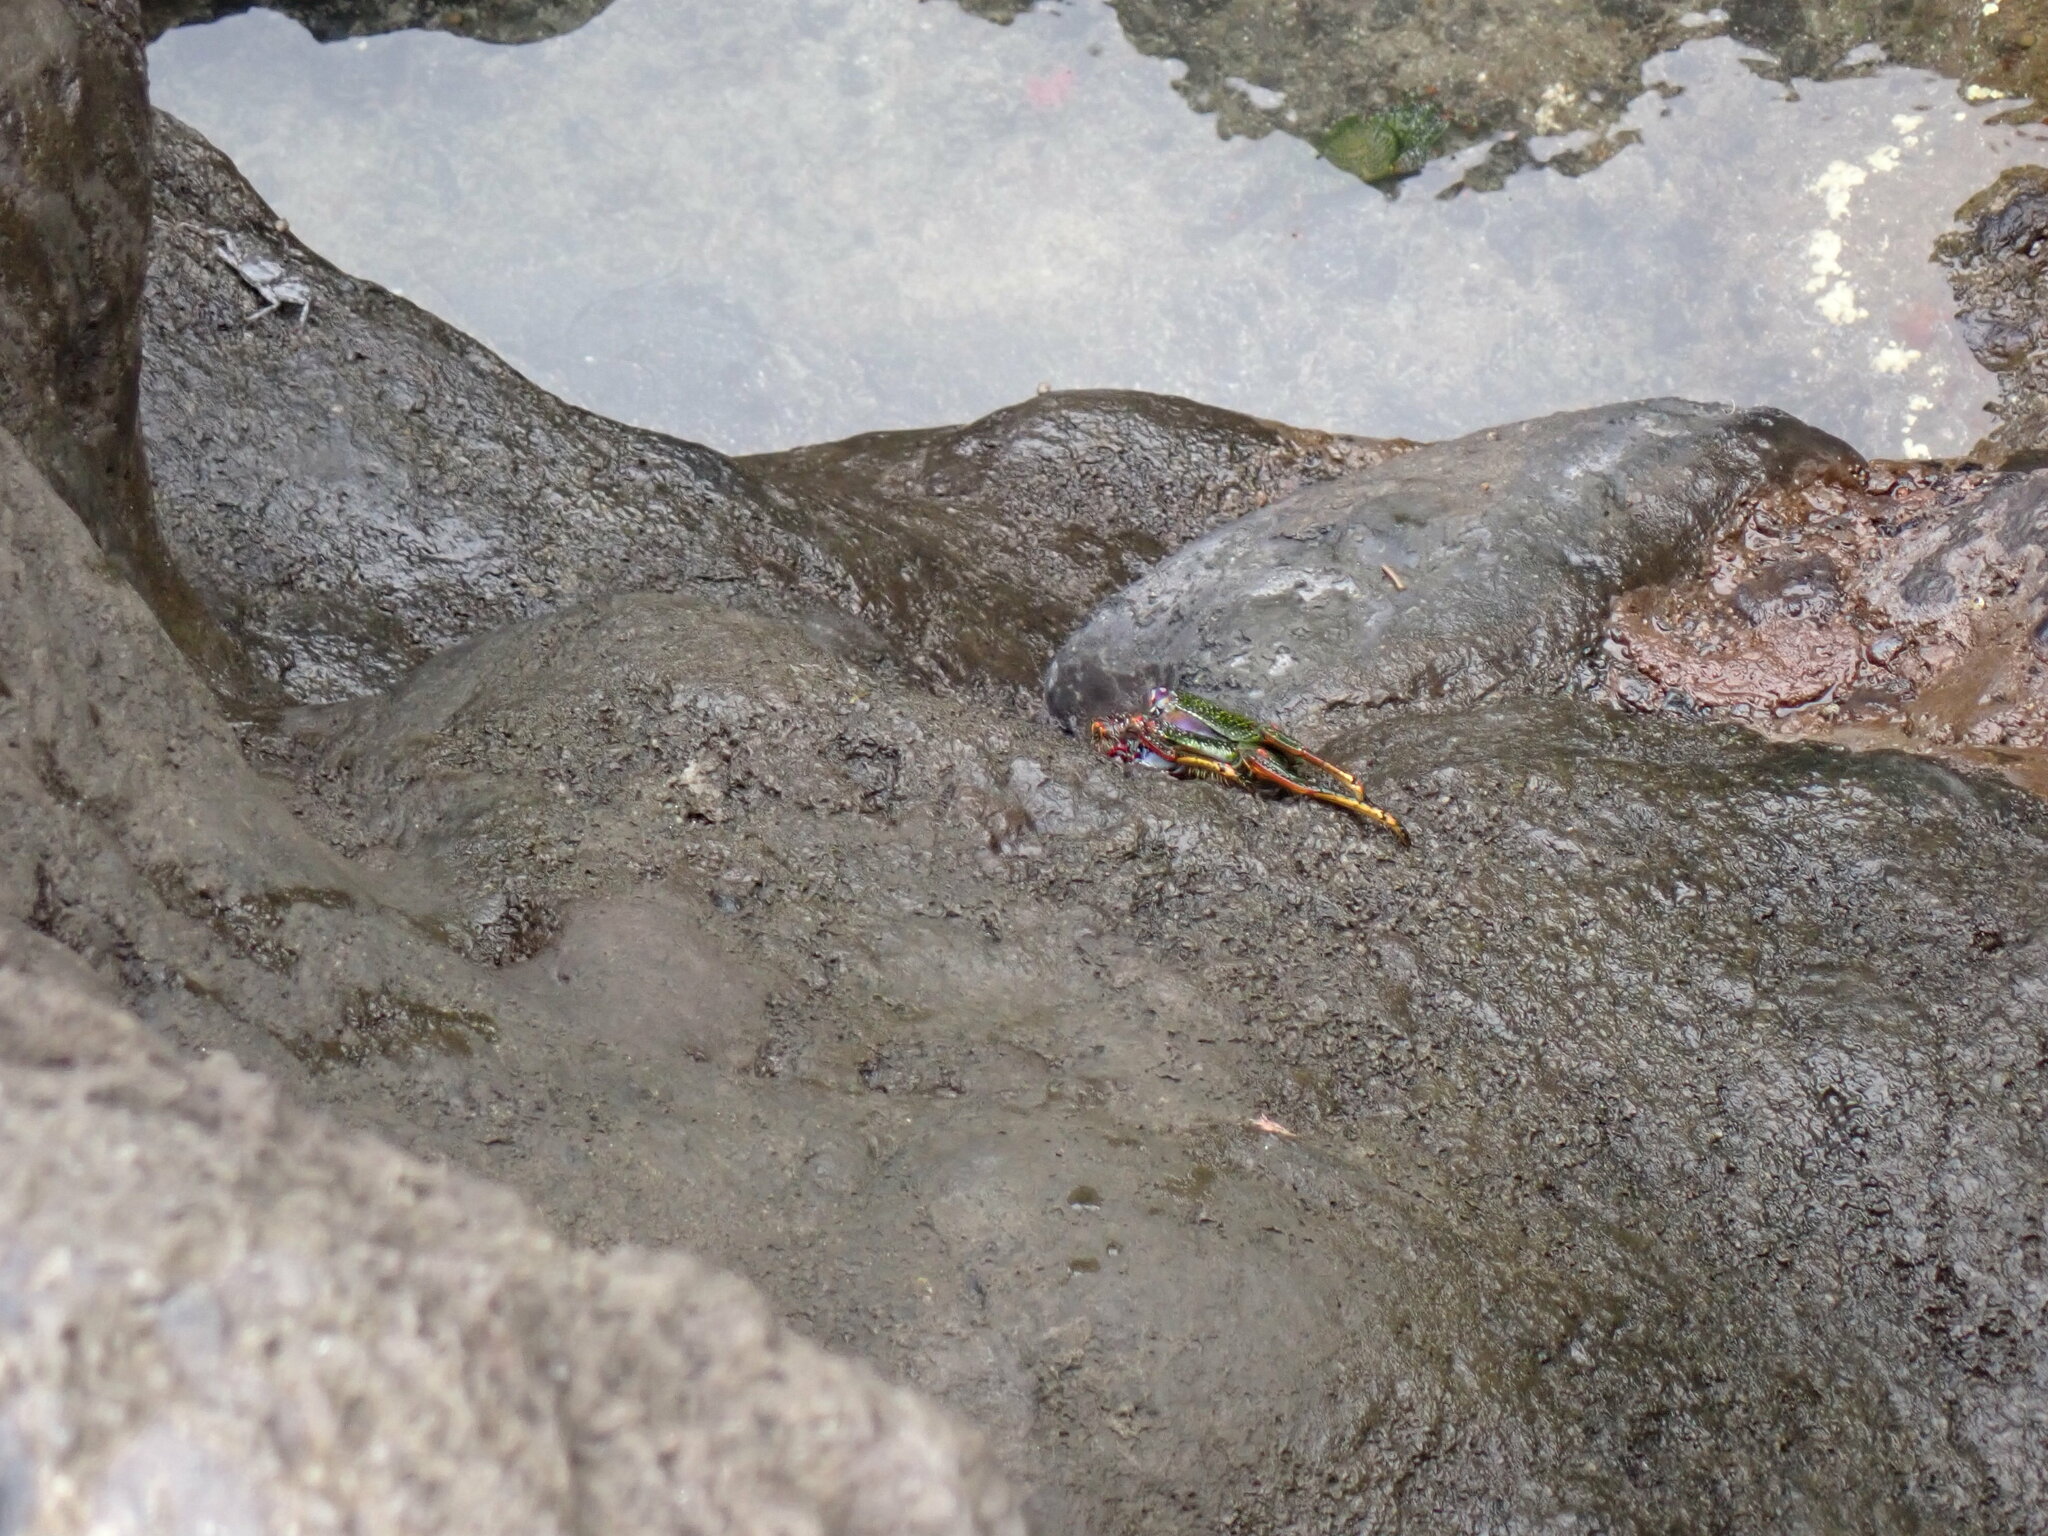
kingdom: Animalia
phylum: Arthropoda
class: Malacostraca
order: Decapoda
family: Grapsidae
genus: Grapsus
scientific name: Grapsus adscensionis
